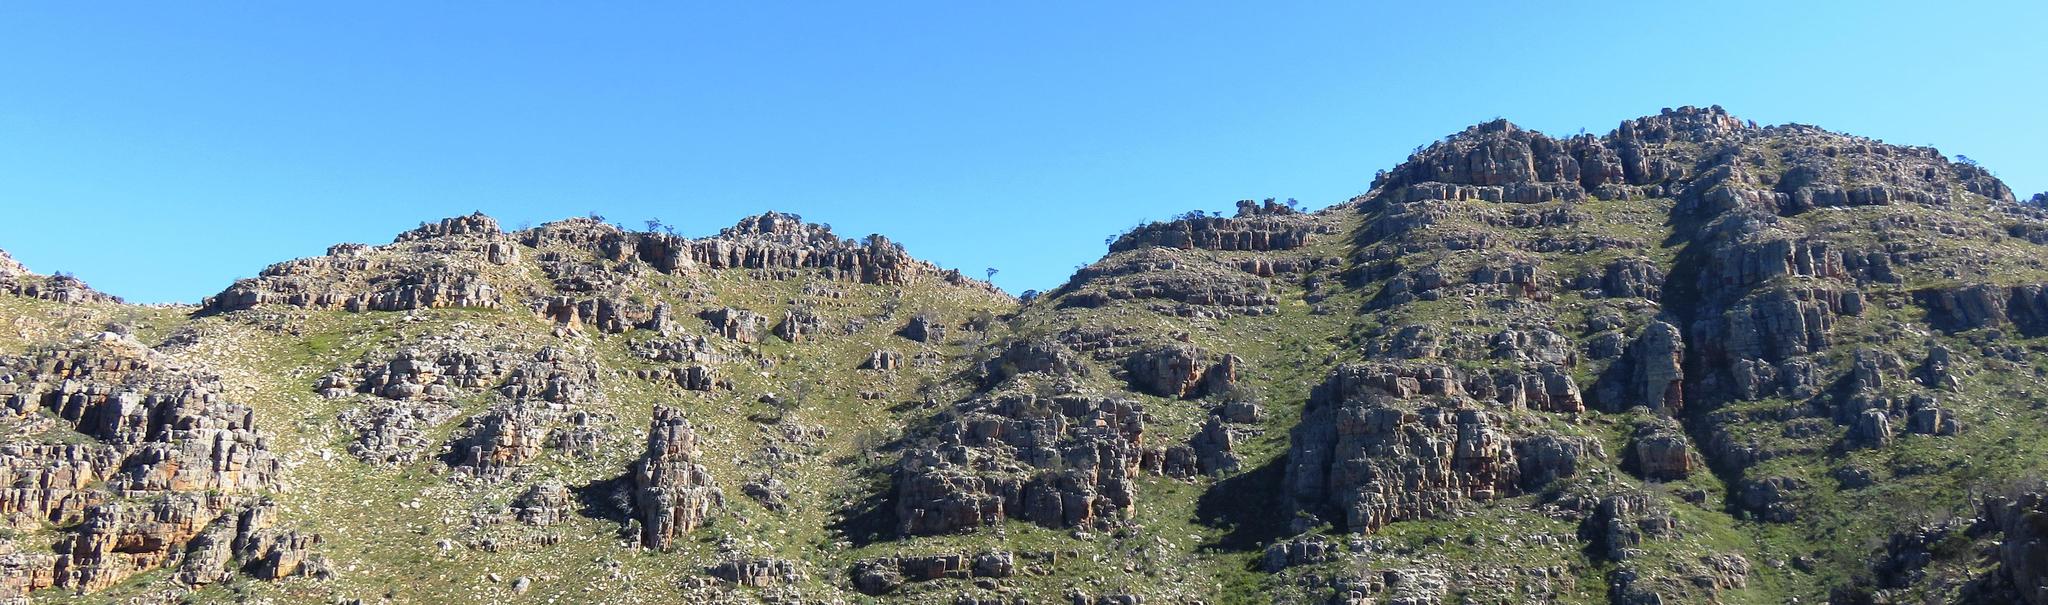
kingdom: Plantae
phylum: Tracheophyta
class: Pinopsida
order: Pinales
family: Cupressaceae
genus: Widdringtonia
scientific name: Widdringtonia nodiflora
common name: Cape cypress
